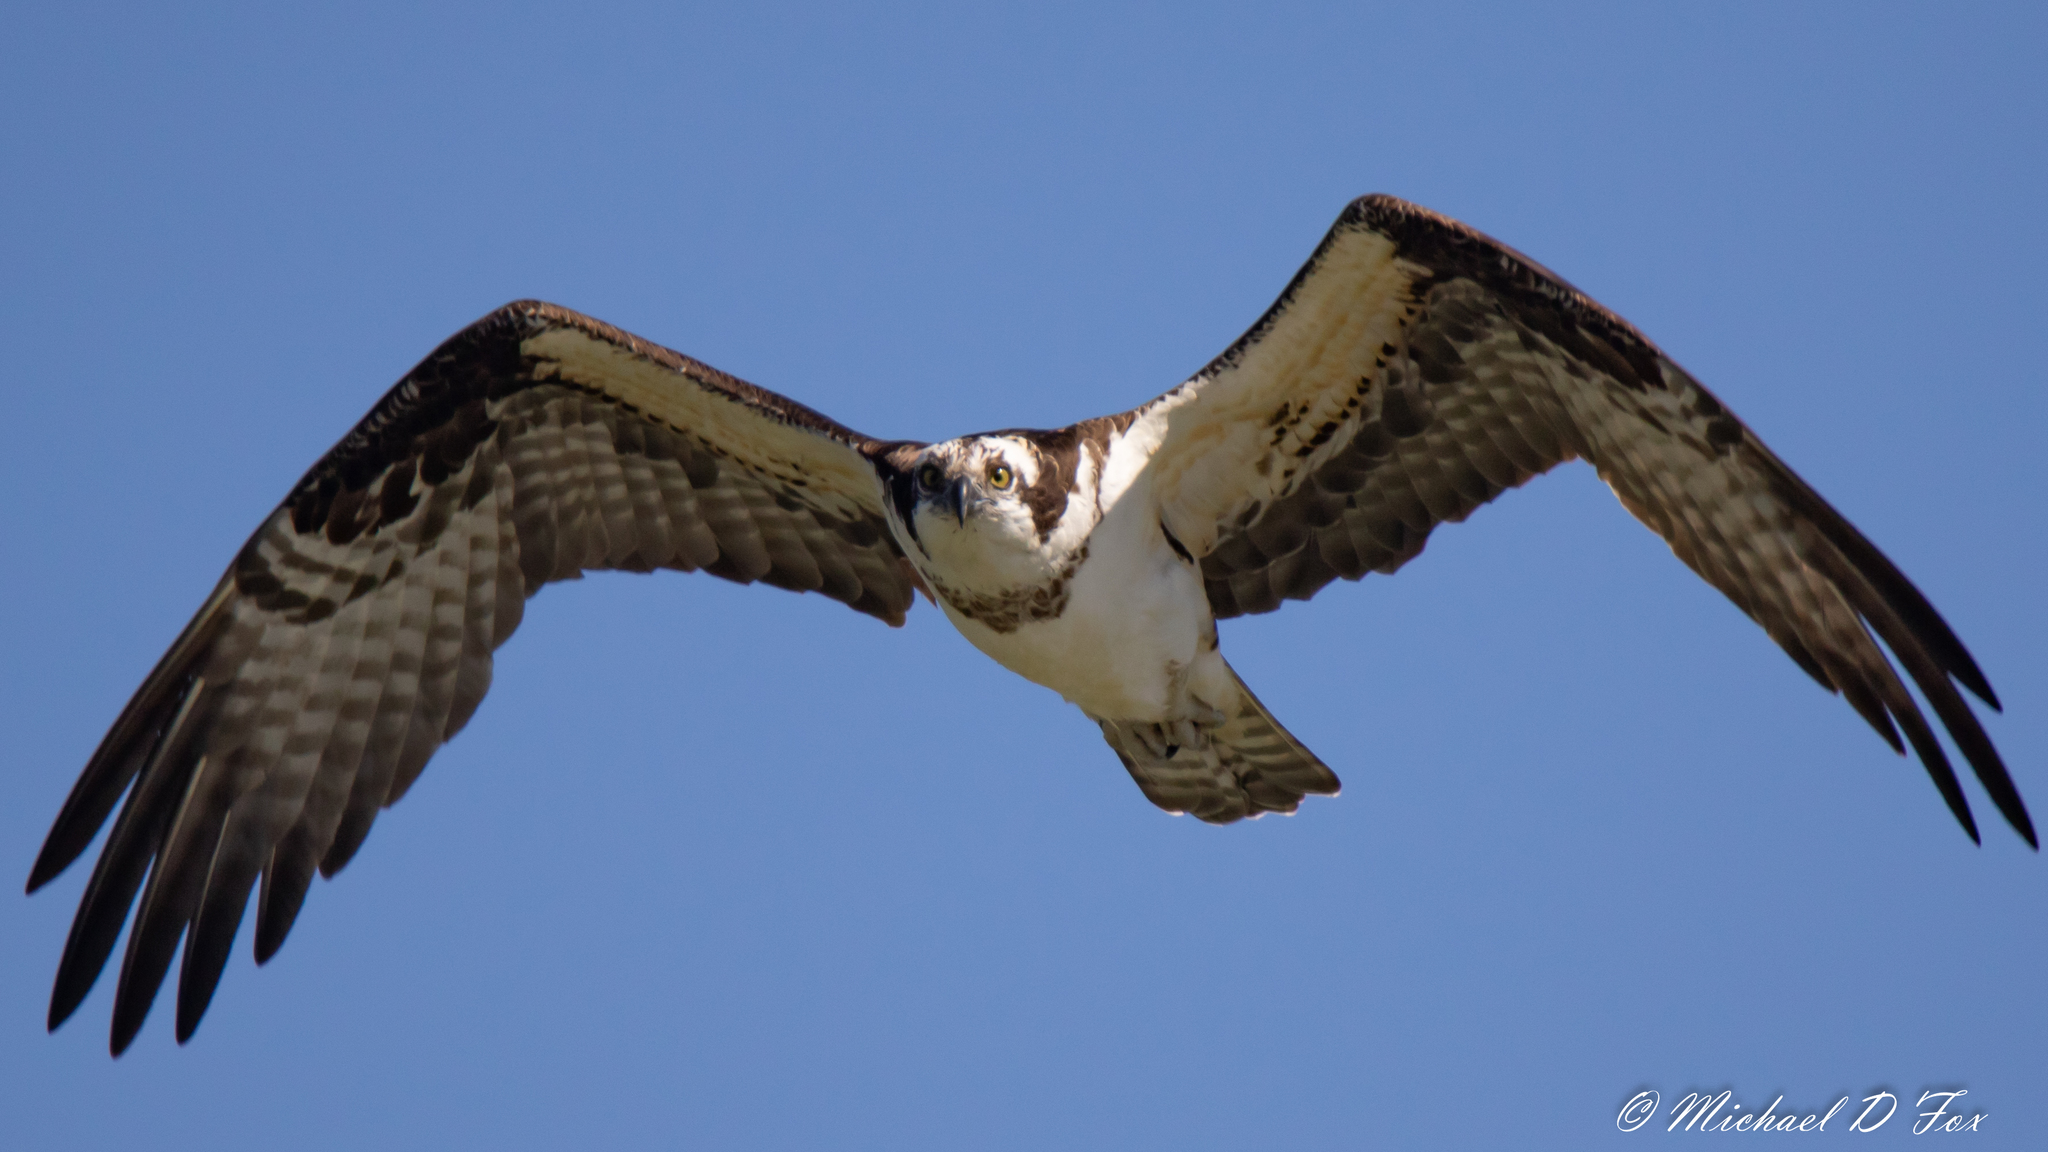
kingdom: Animalia
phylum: Chordata
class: Aves
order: Accipitriformes
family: Pandionidae
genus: Pandion
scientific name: Pandion haliaetus
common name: Osprey
